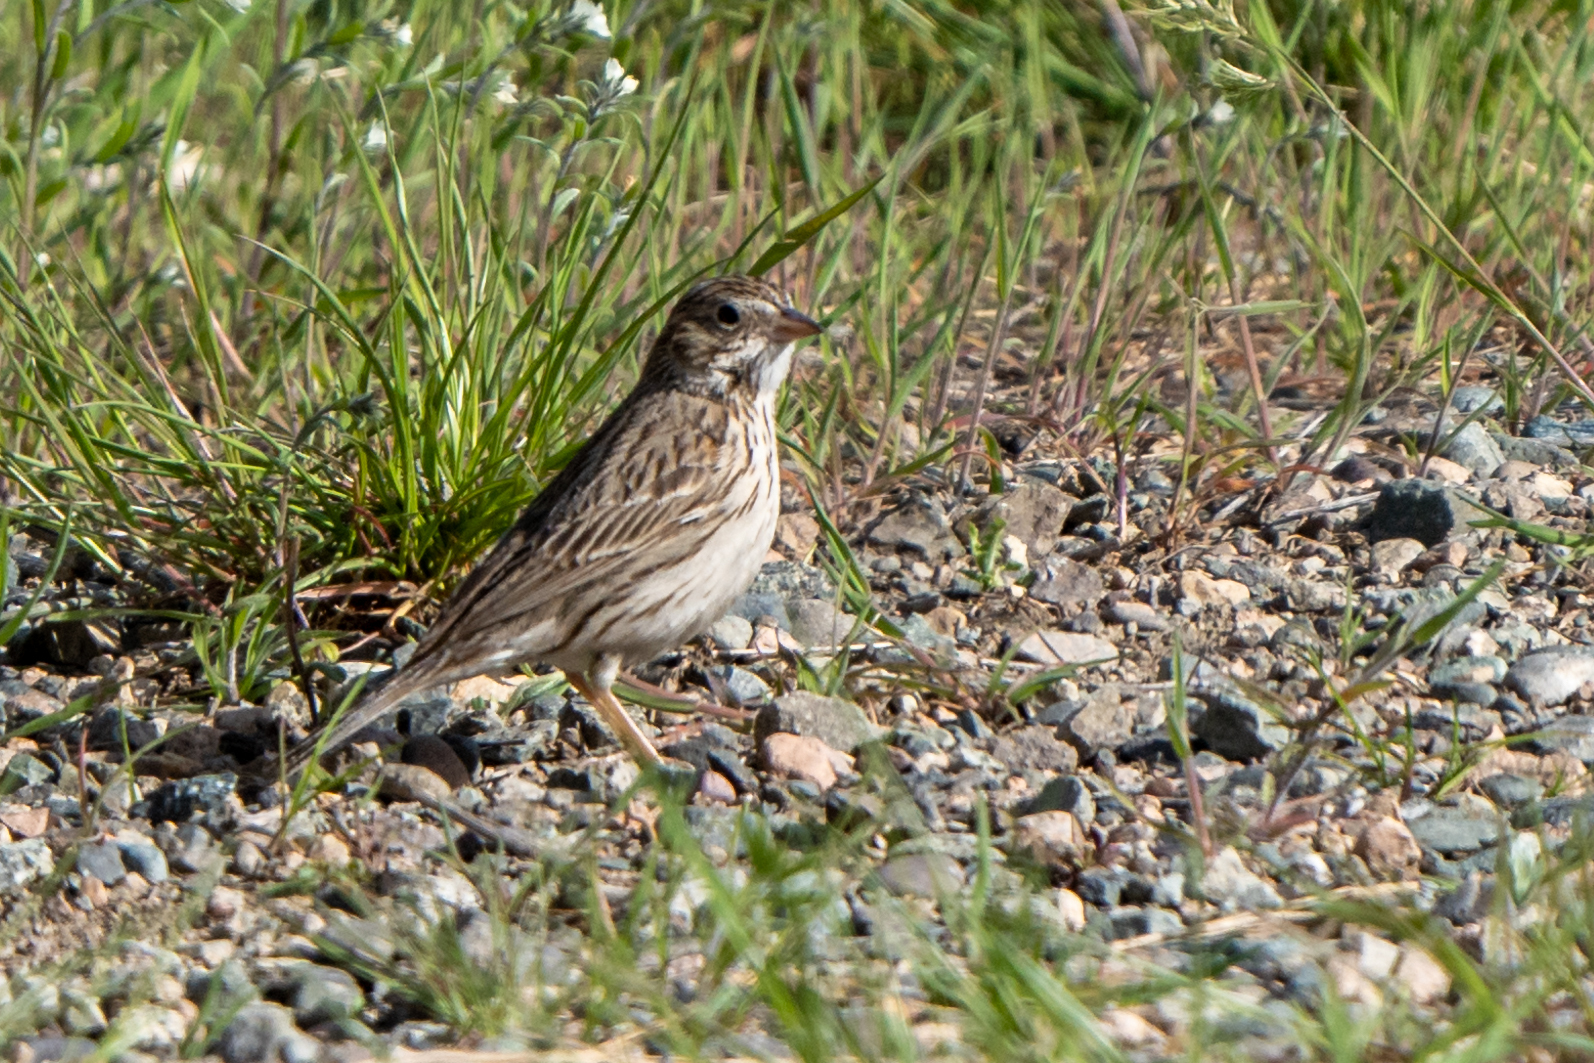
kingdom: Animalia
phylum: Chordata
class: Aves
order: Passeriformes
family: Passerellidae
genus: Pooecetes
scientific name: Pooecetes gramineus
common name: Vesper sparrow
